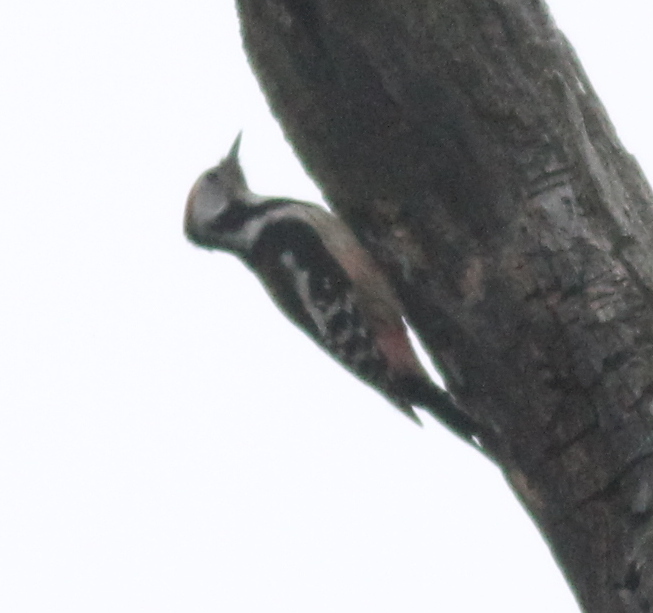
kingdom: Animalia
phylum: Chordata
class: Aves
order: Piciformes
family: Picidae
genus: Dendrocoptes
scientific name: Dendrocoptes medius
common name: Middle spotted woodpecker
